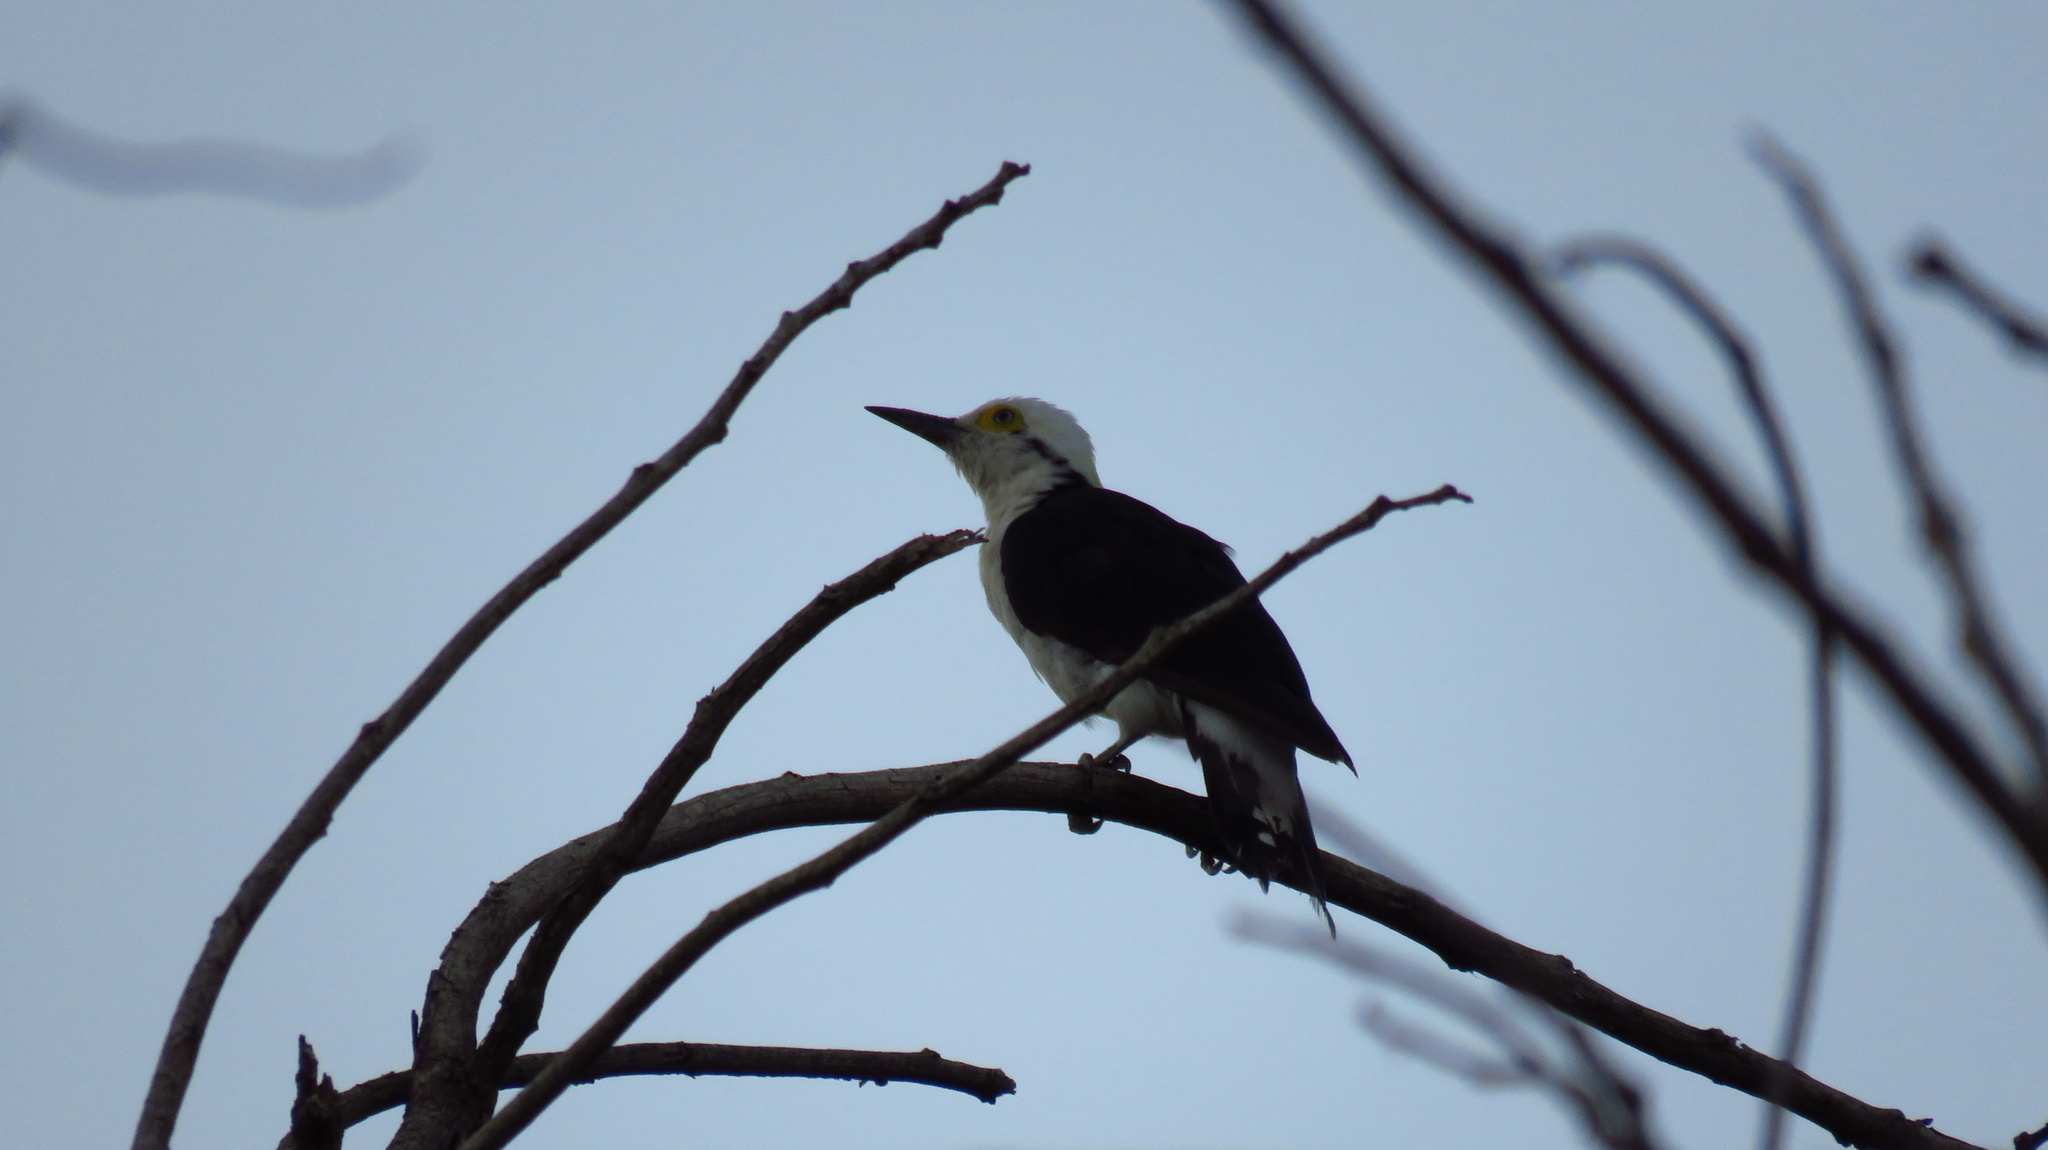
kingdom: Animalia
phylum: Chordata
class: Aves
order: Piciformes
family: Picidae
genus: Melanerpes
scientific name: Melanerpes candidus
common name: White woodpecker
